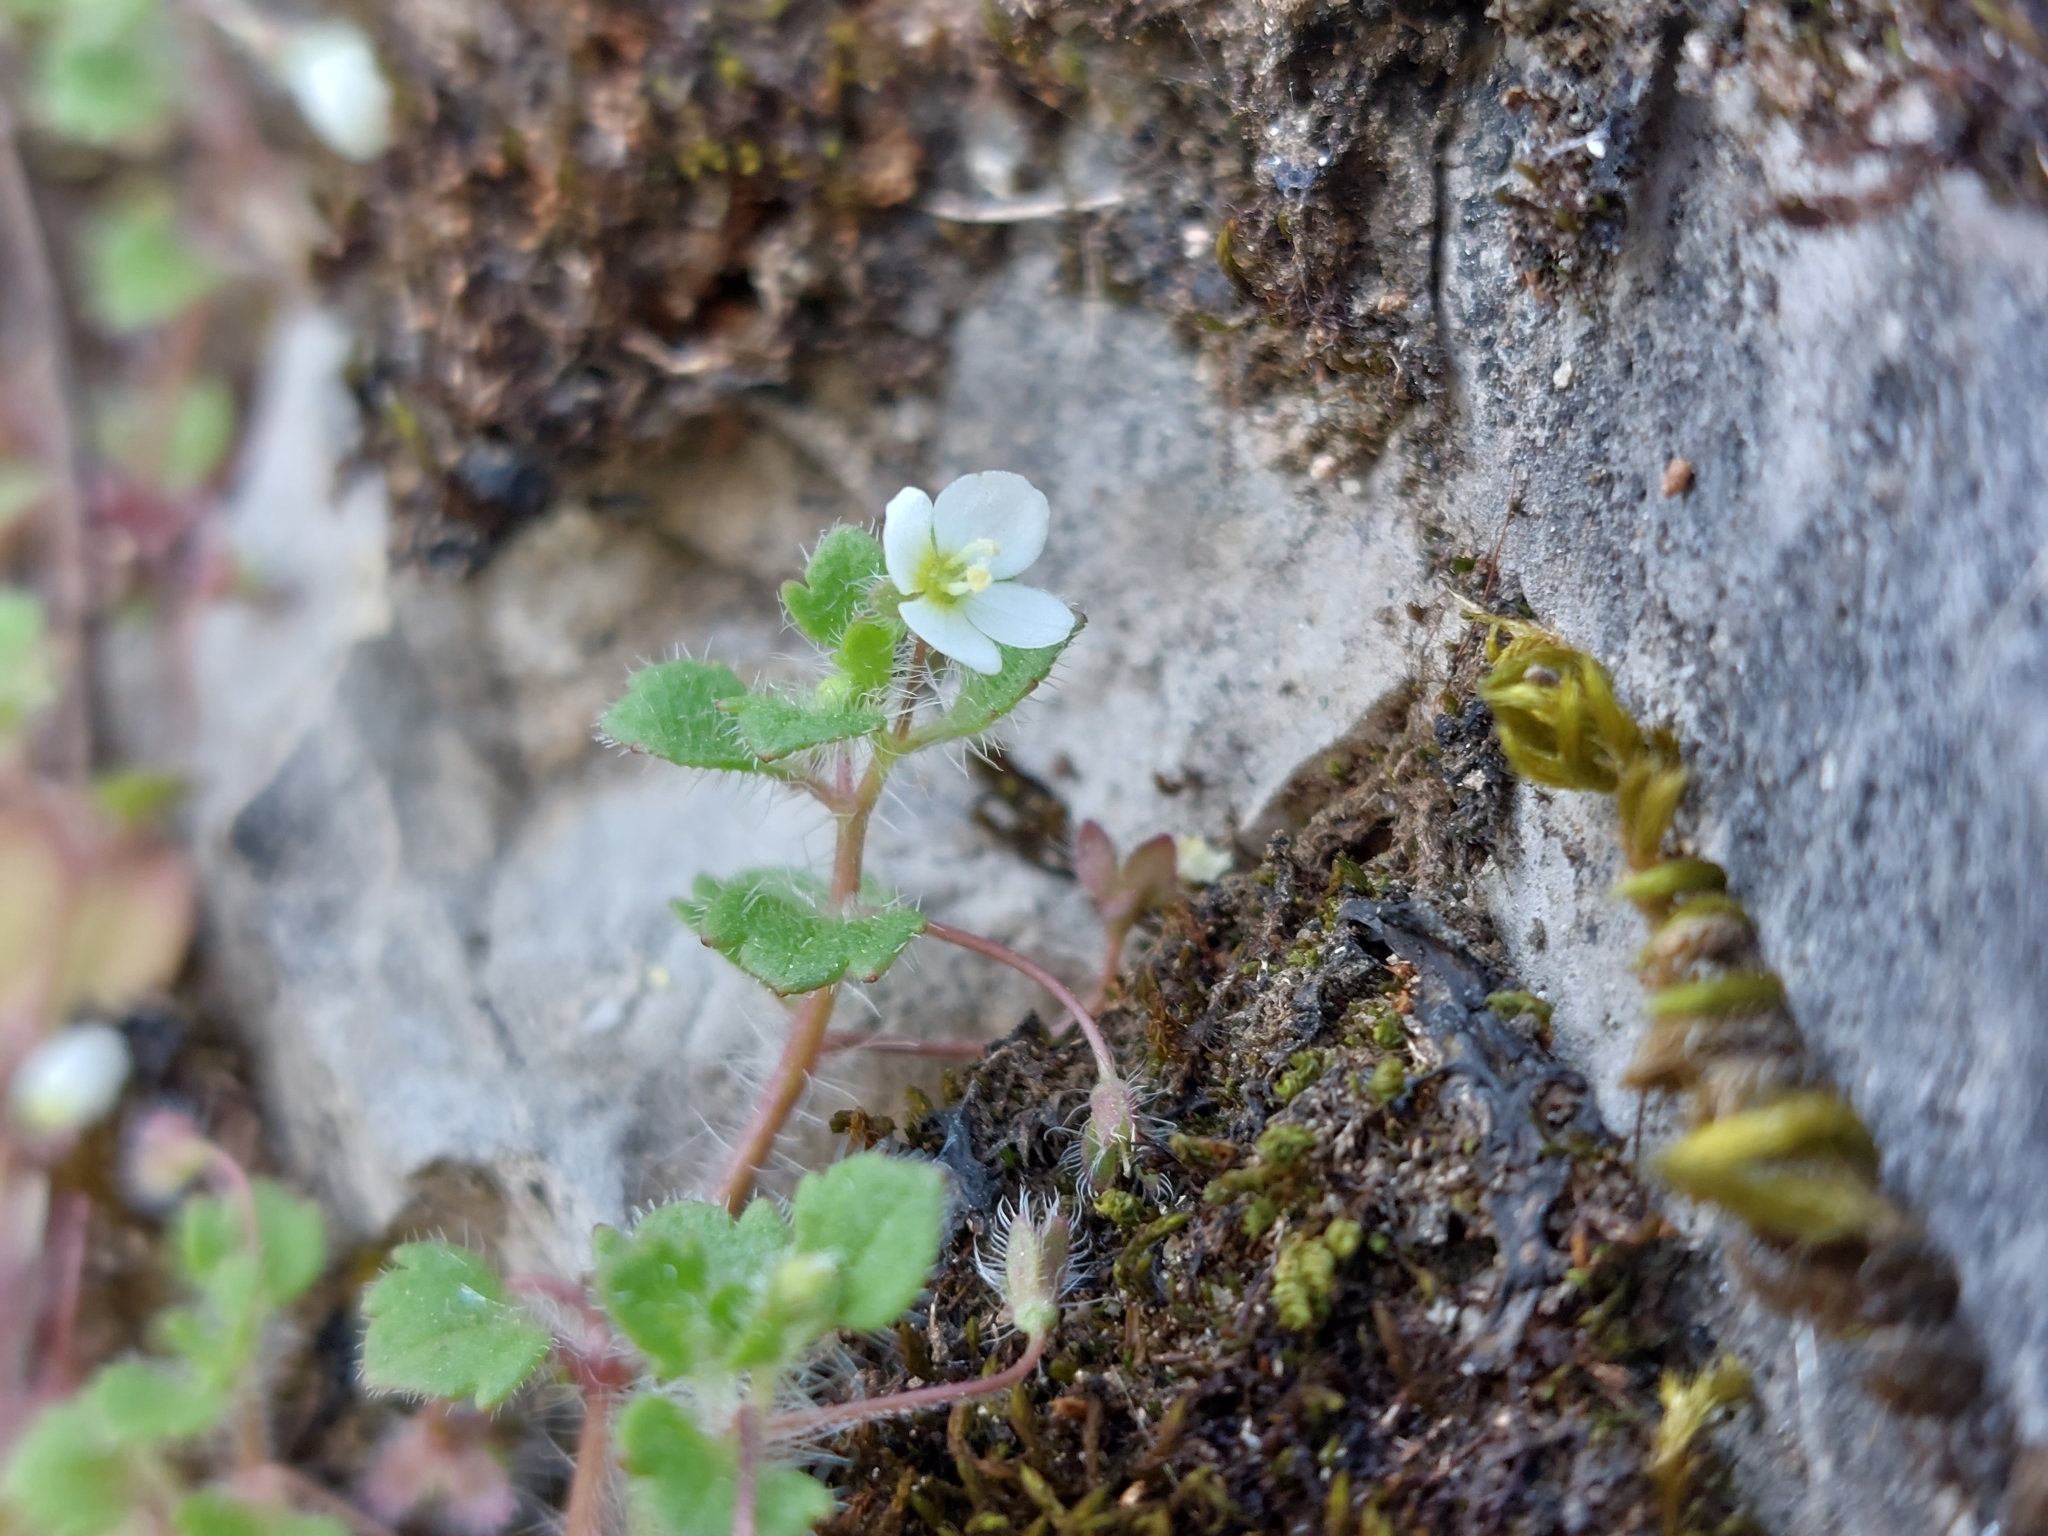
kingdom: Plantae
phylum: Tracheophyta
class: Magnoliopsida
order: Lamiales
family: Plantaginaceae
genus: Veronica
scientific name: Veronica cymbalaria
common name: Pale speedwell
